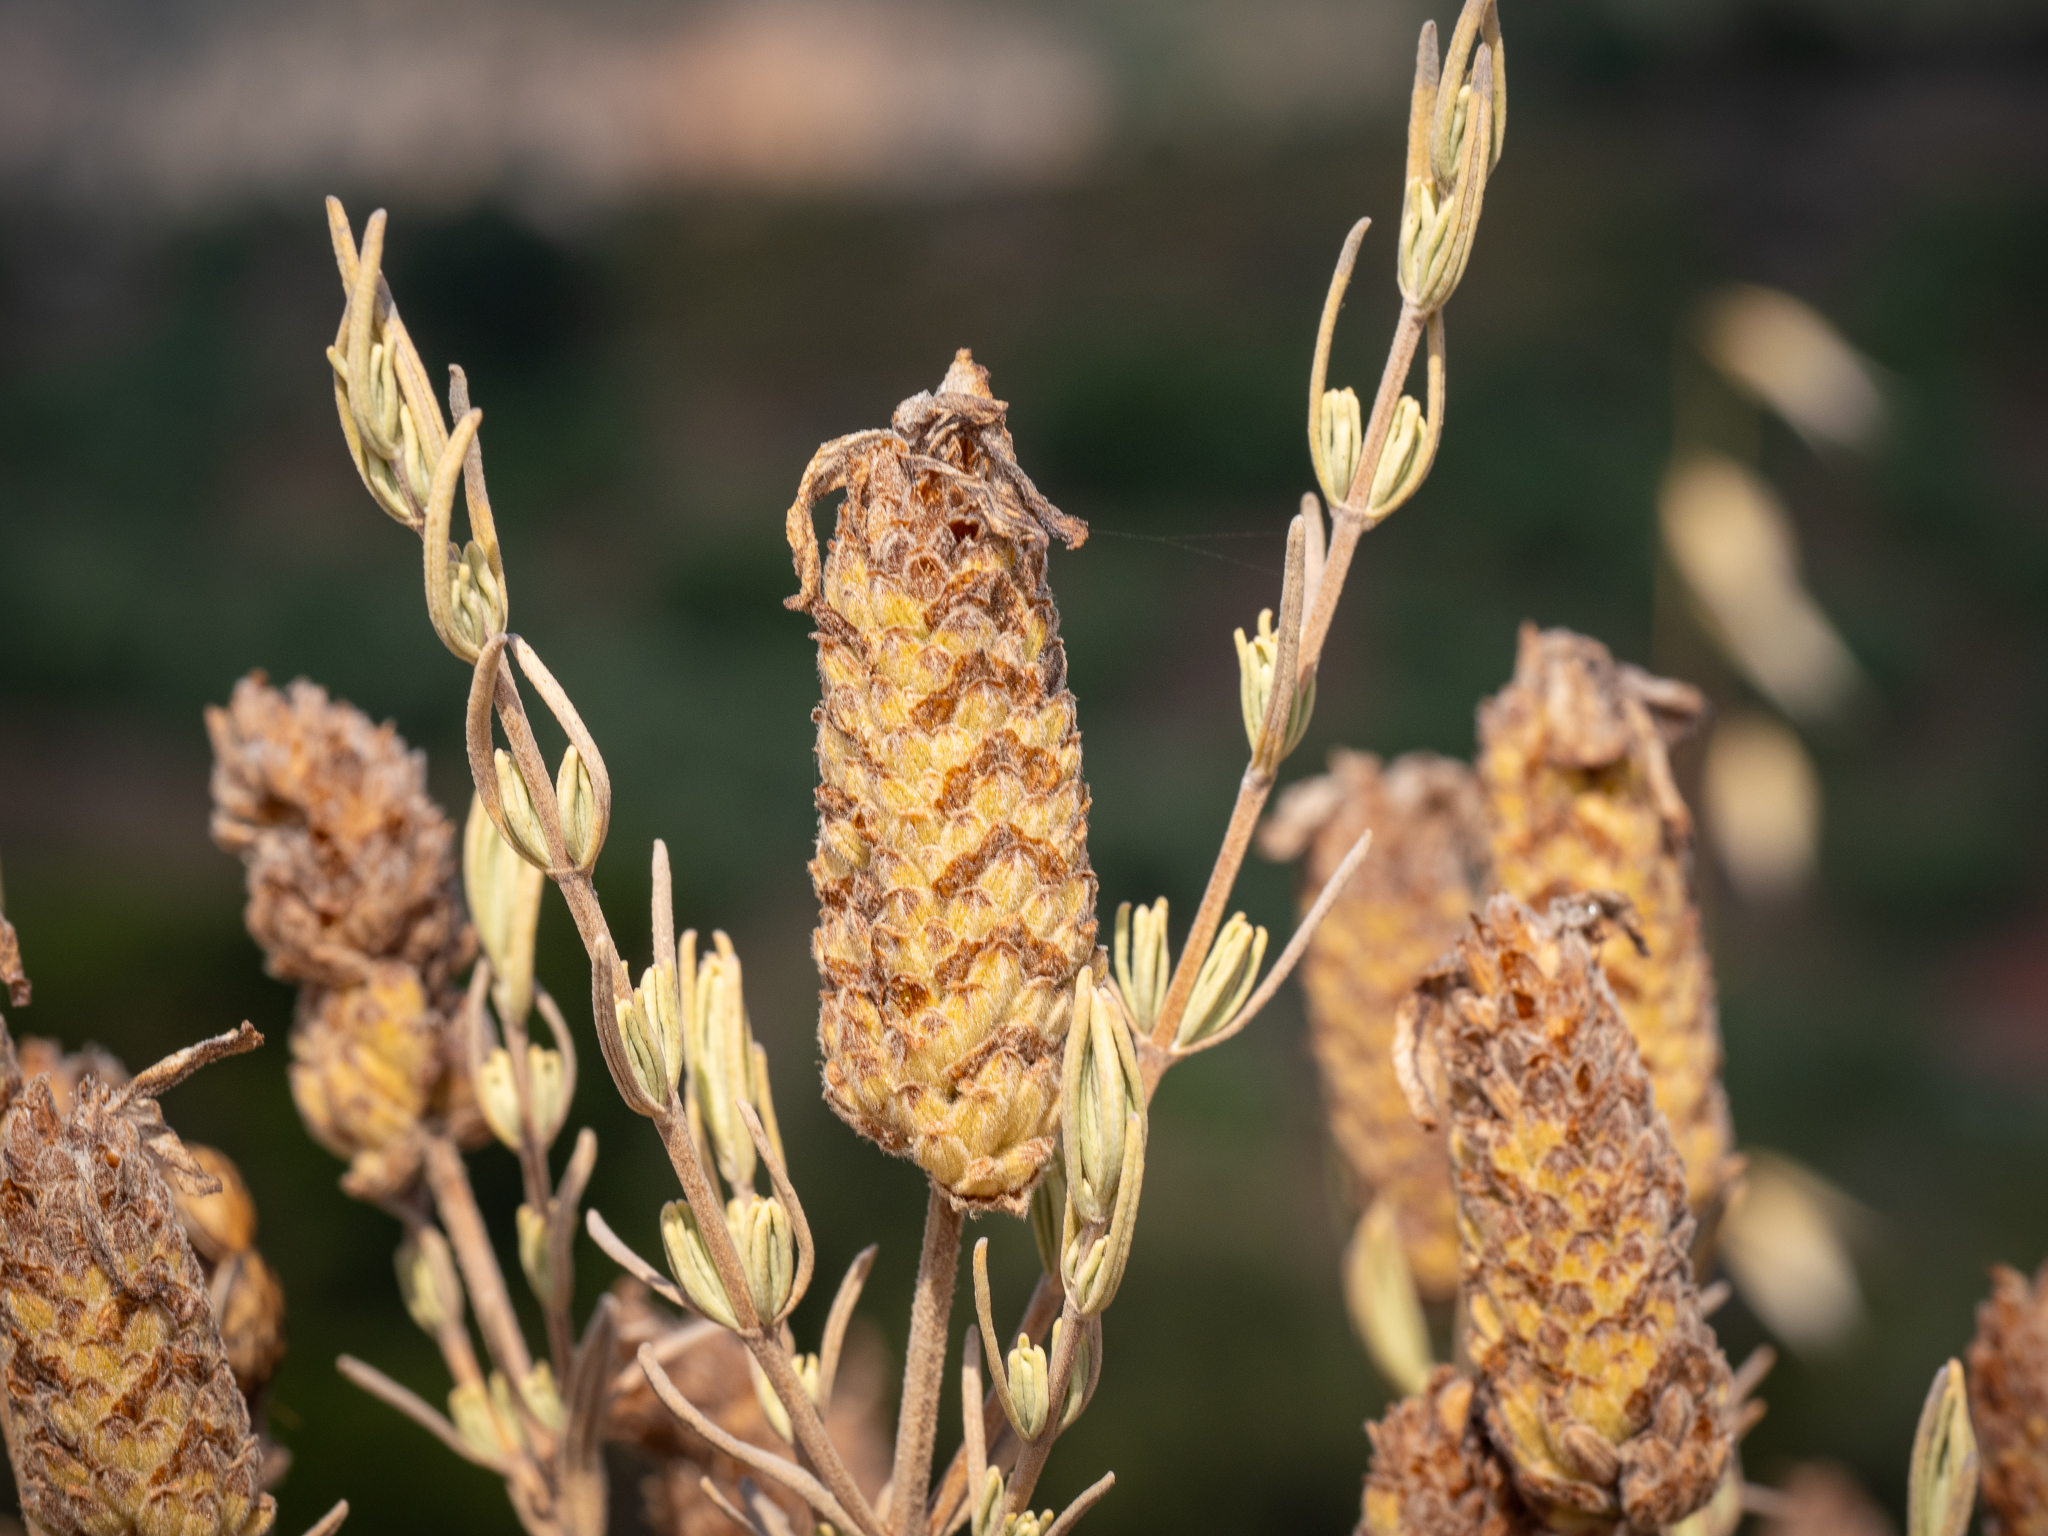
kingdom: Plantae
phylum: Tracheophyta
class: Magnoliopsida
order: Lamiales
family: Lamiaceae
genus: Lavandula
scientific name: Lavandula stoechas
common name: French lavender
